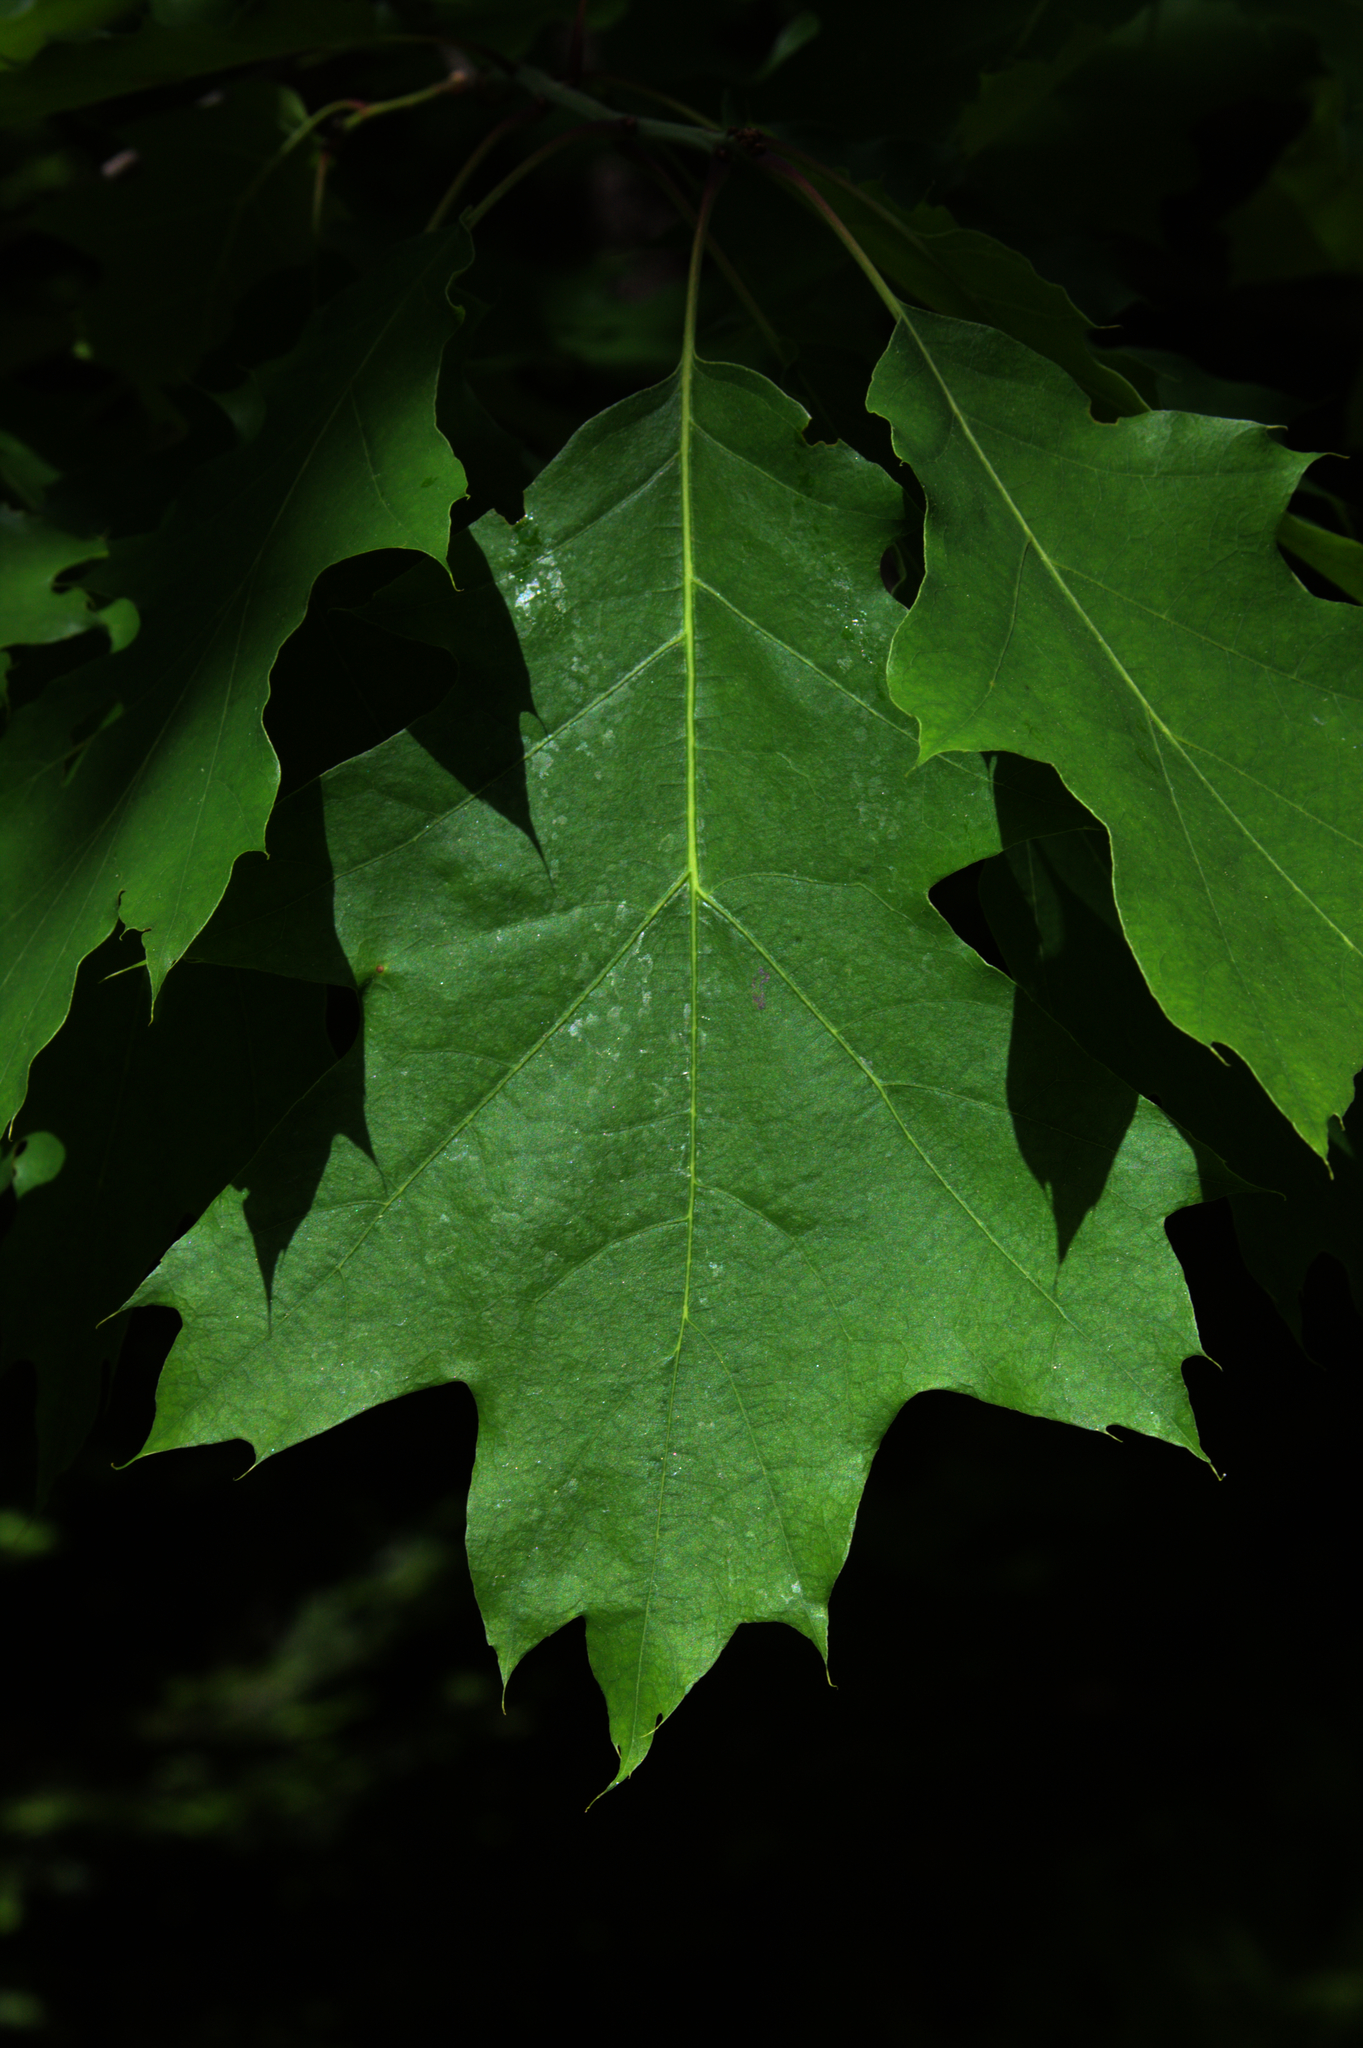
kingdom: Plantae
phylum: Tracheophyta
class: Magnoliopsida
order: Fagales
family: Fagaceae
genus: Quercus
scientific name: Quercus rubra
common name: Red oak
